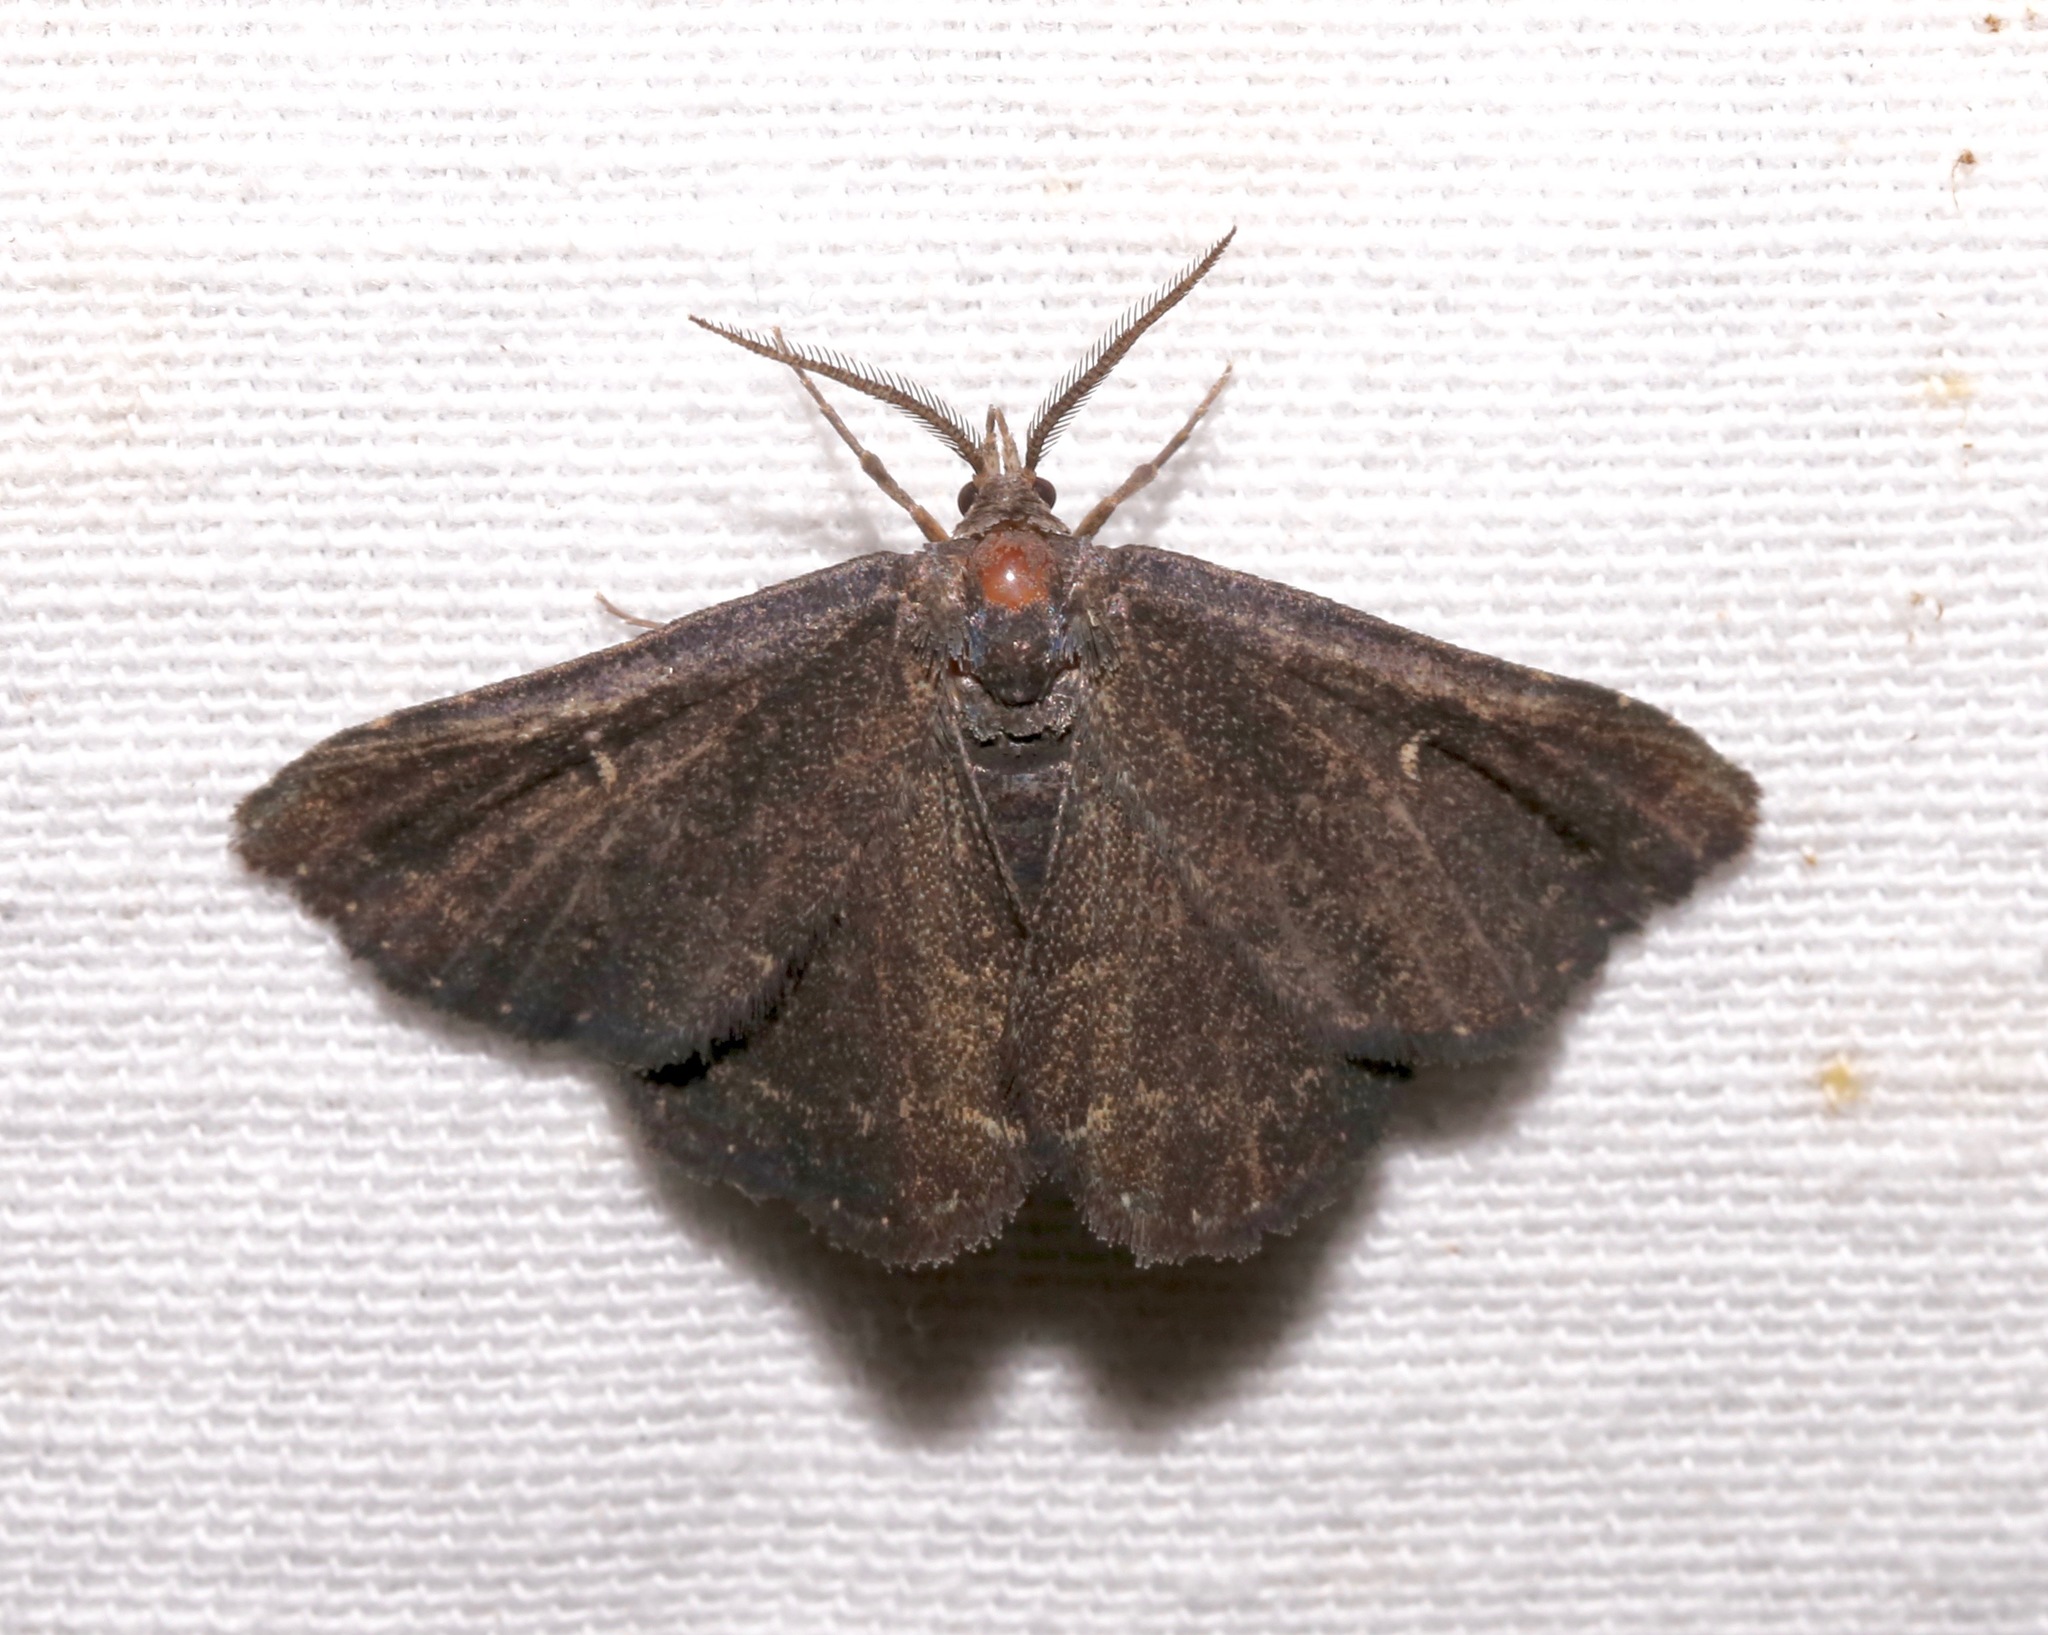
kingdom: Animalia
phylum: Arthropoda
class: Insecta
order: Lepidoptera
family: Erebidae
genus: Prosoparia
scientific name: Prosoparia floridana
